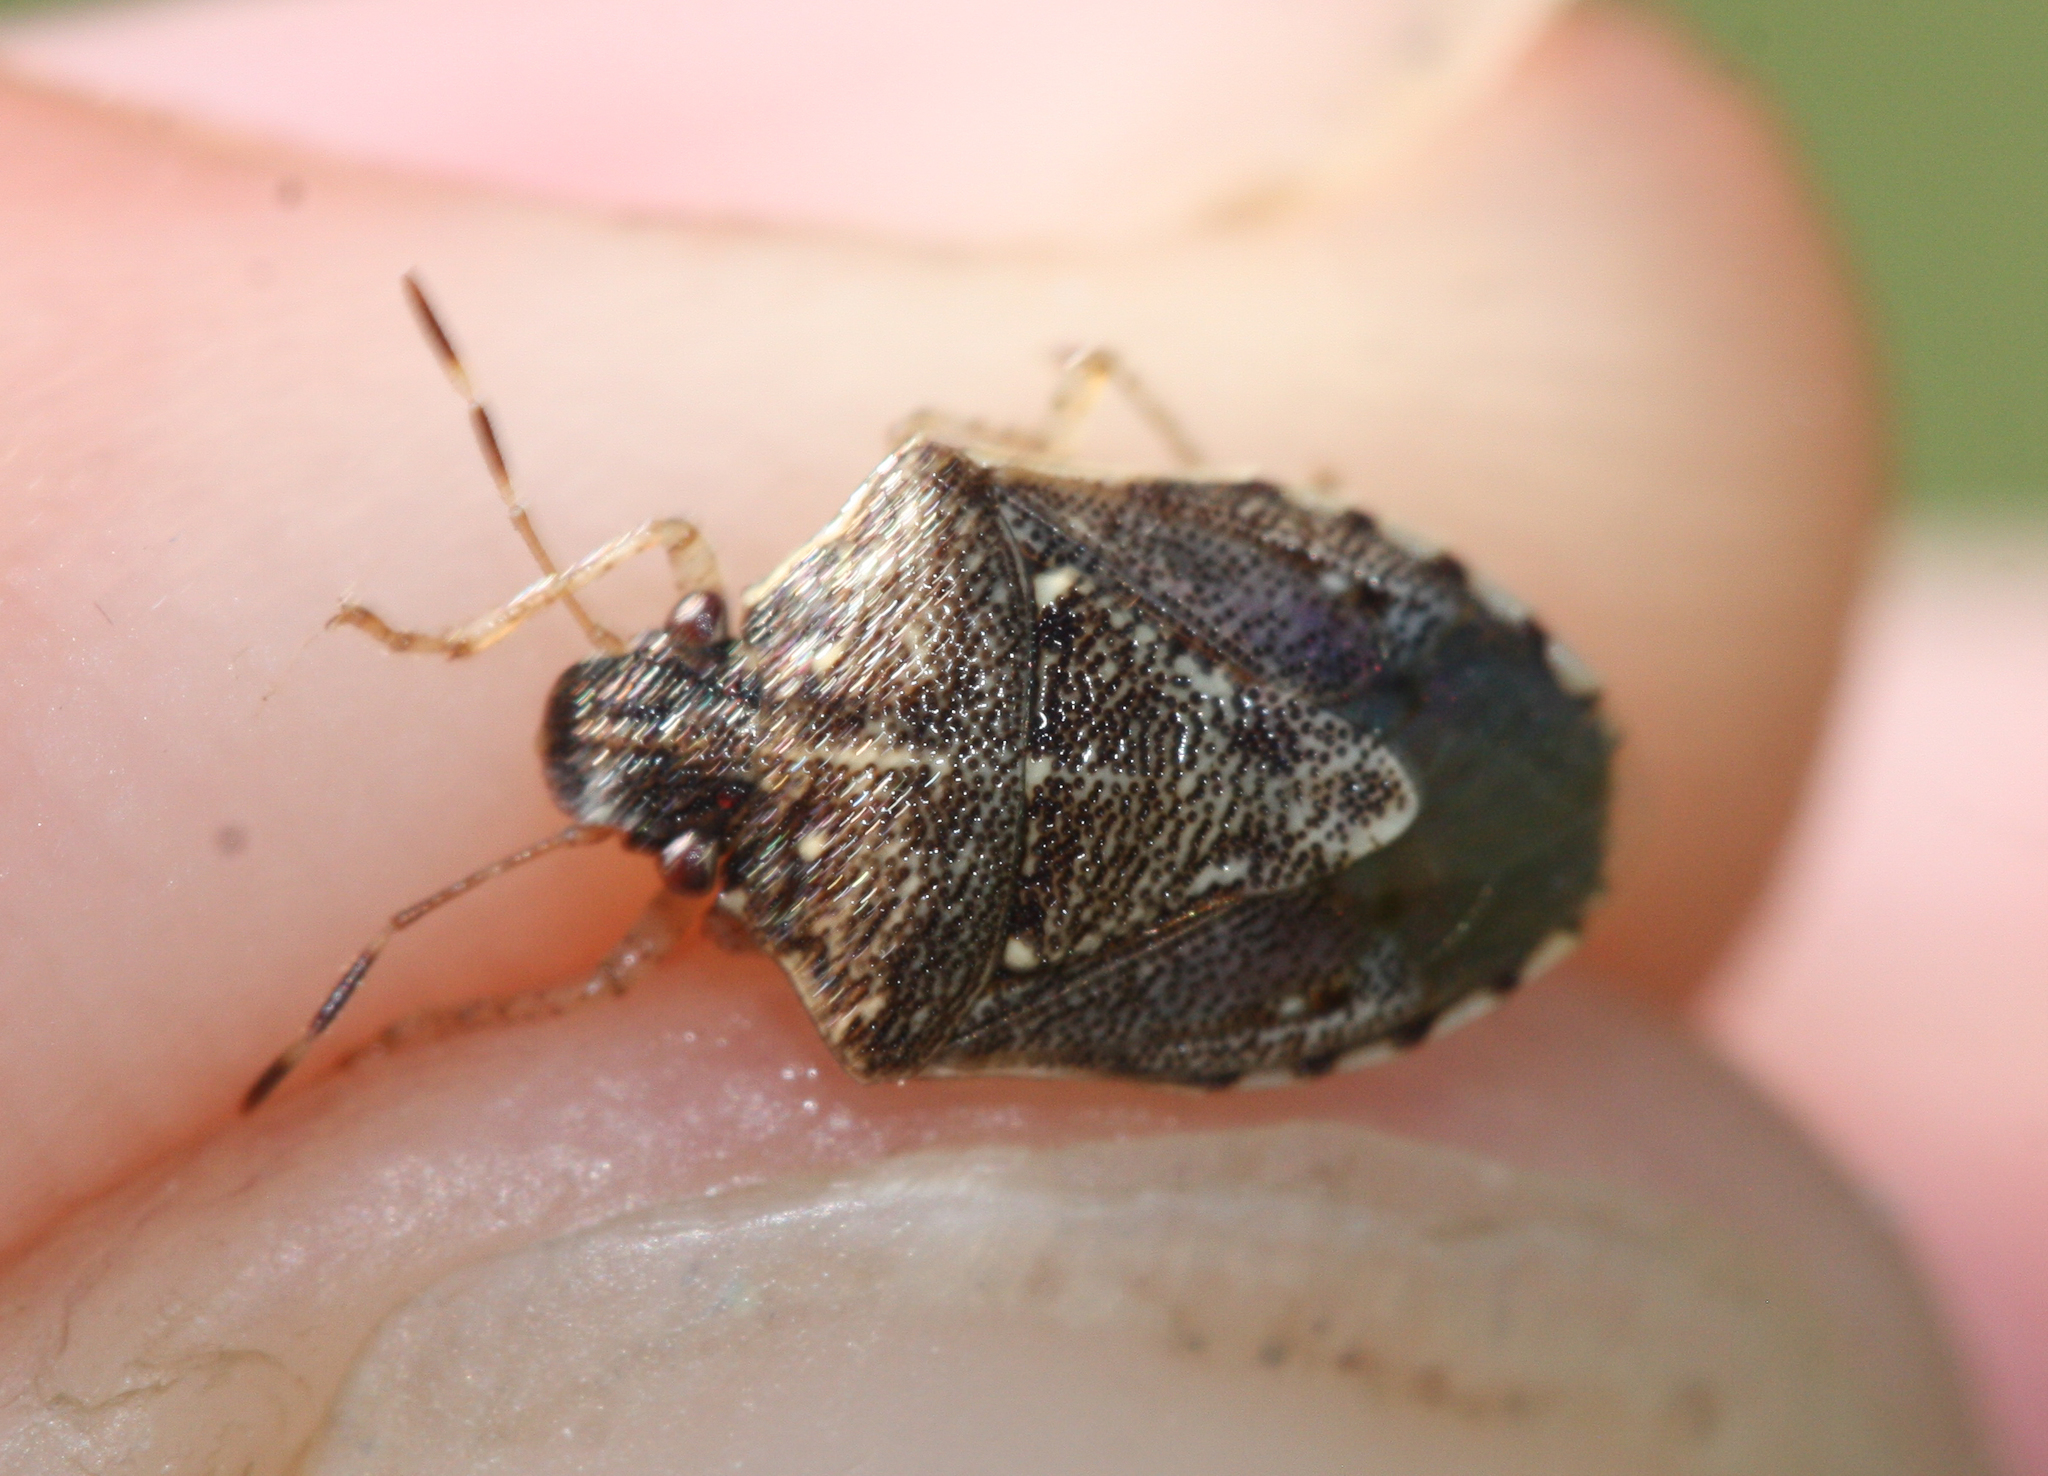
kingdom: Animalia
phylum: Arthropoda
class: Insecta
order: Hemiptera
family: Pentatomidae
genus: Mormidea
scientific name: Mormidea cubrosa
